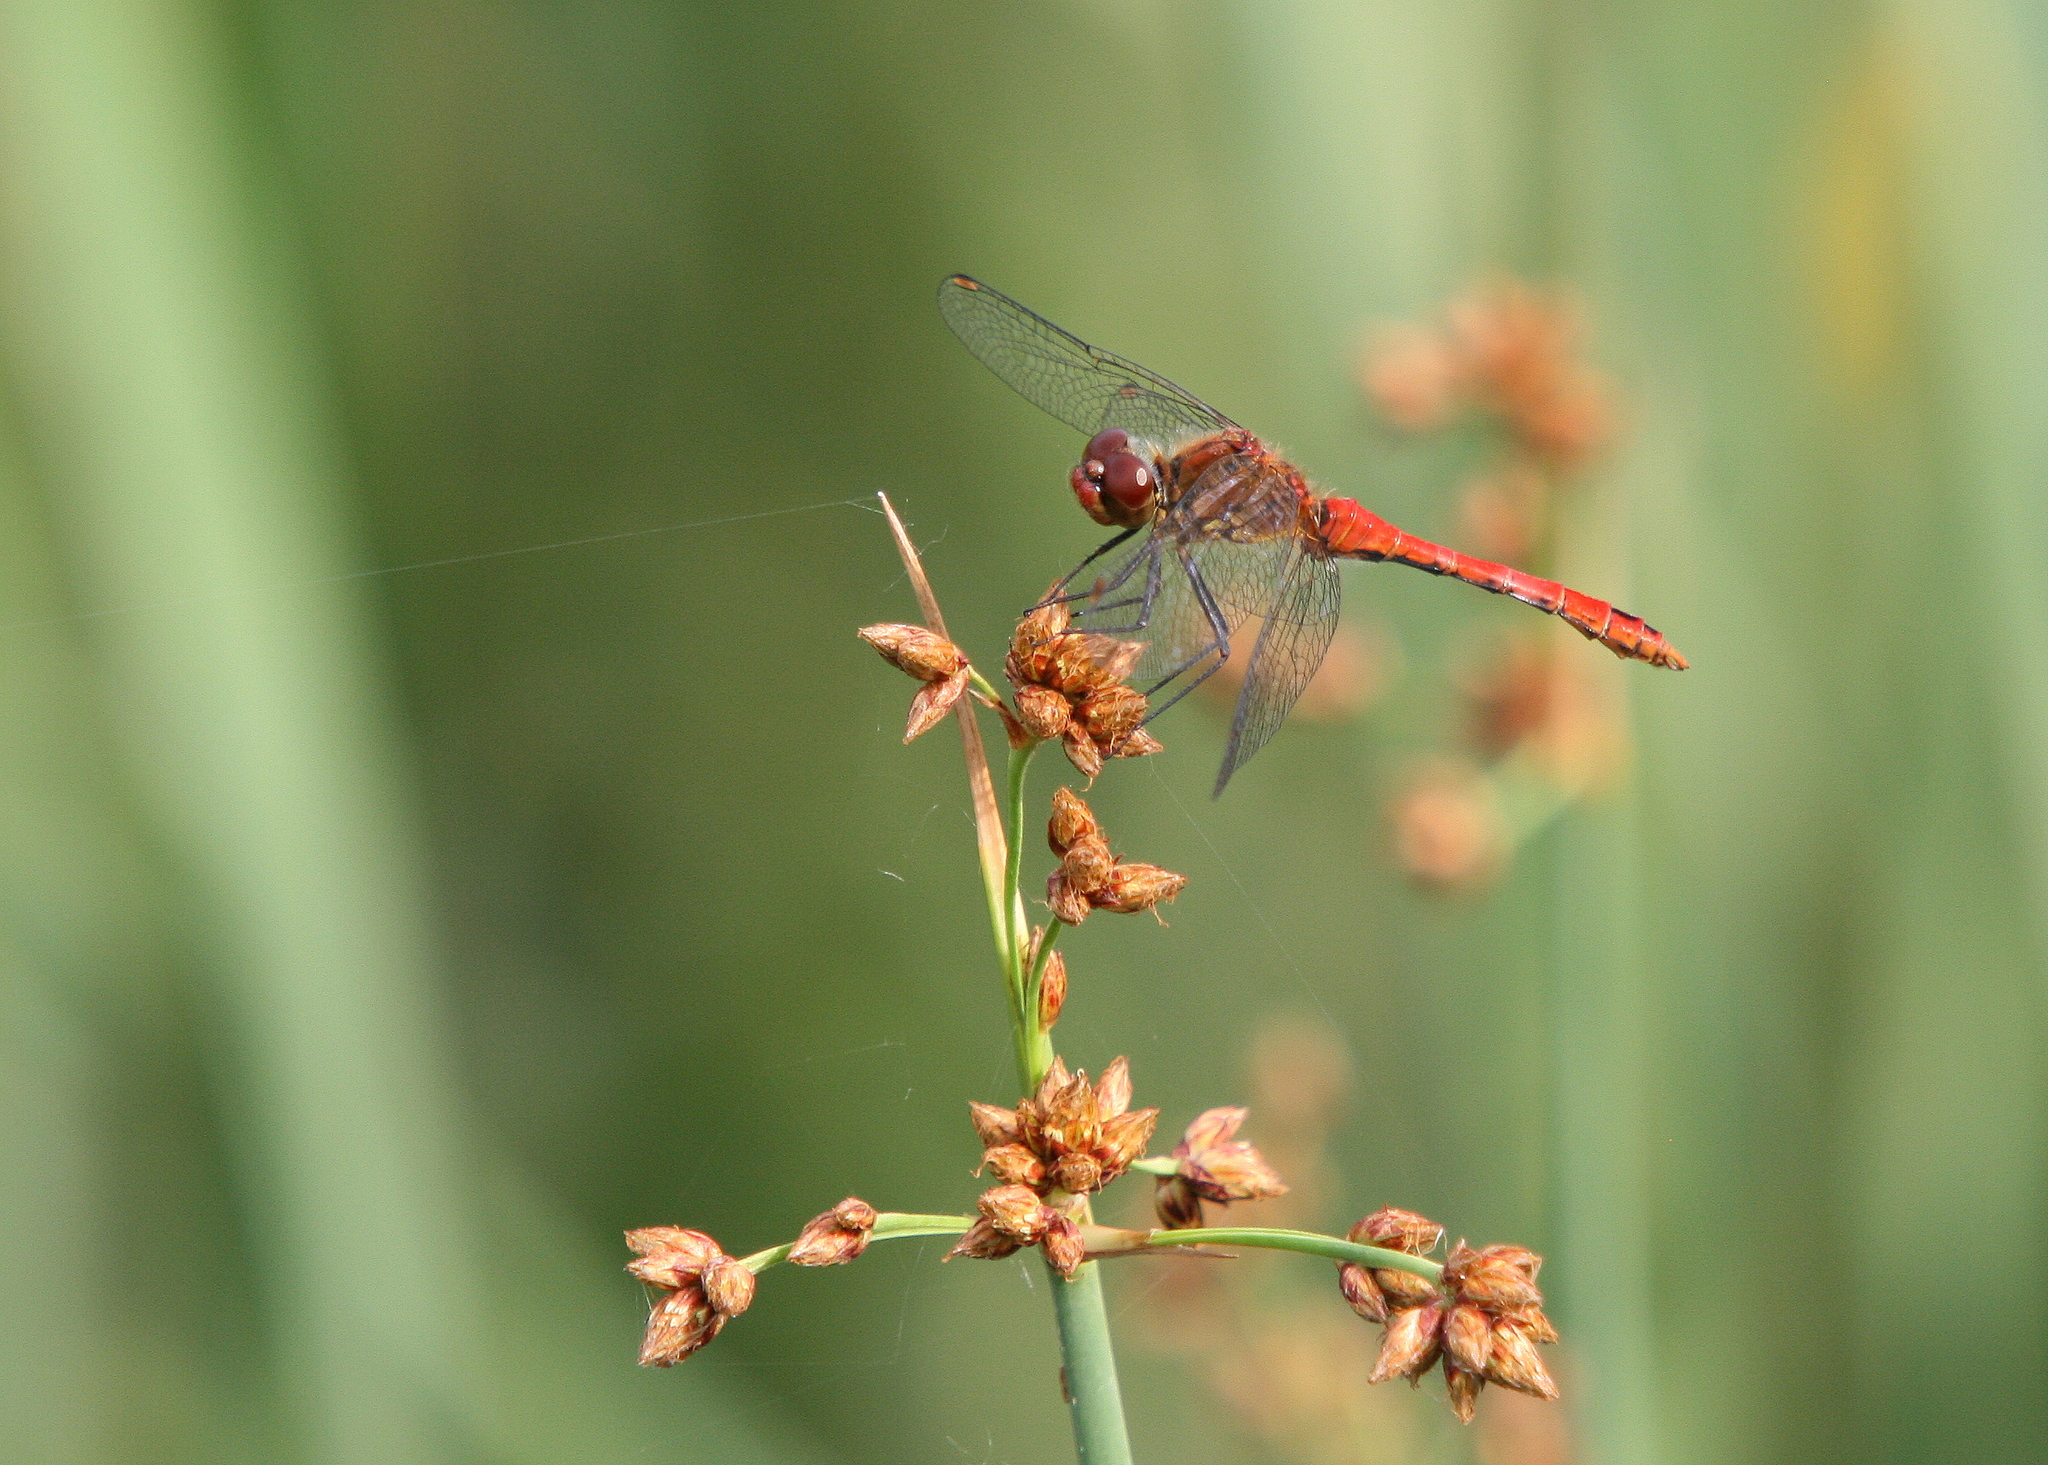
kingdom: Animalia
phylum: Arthropoda
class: Insecta
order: Odonata
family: Libellulidae
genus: Sympetrum
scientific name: Sympetrum sanguineum
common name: Ruddy darter
